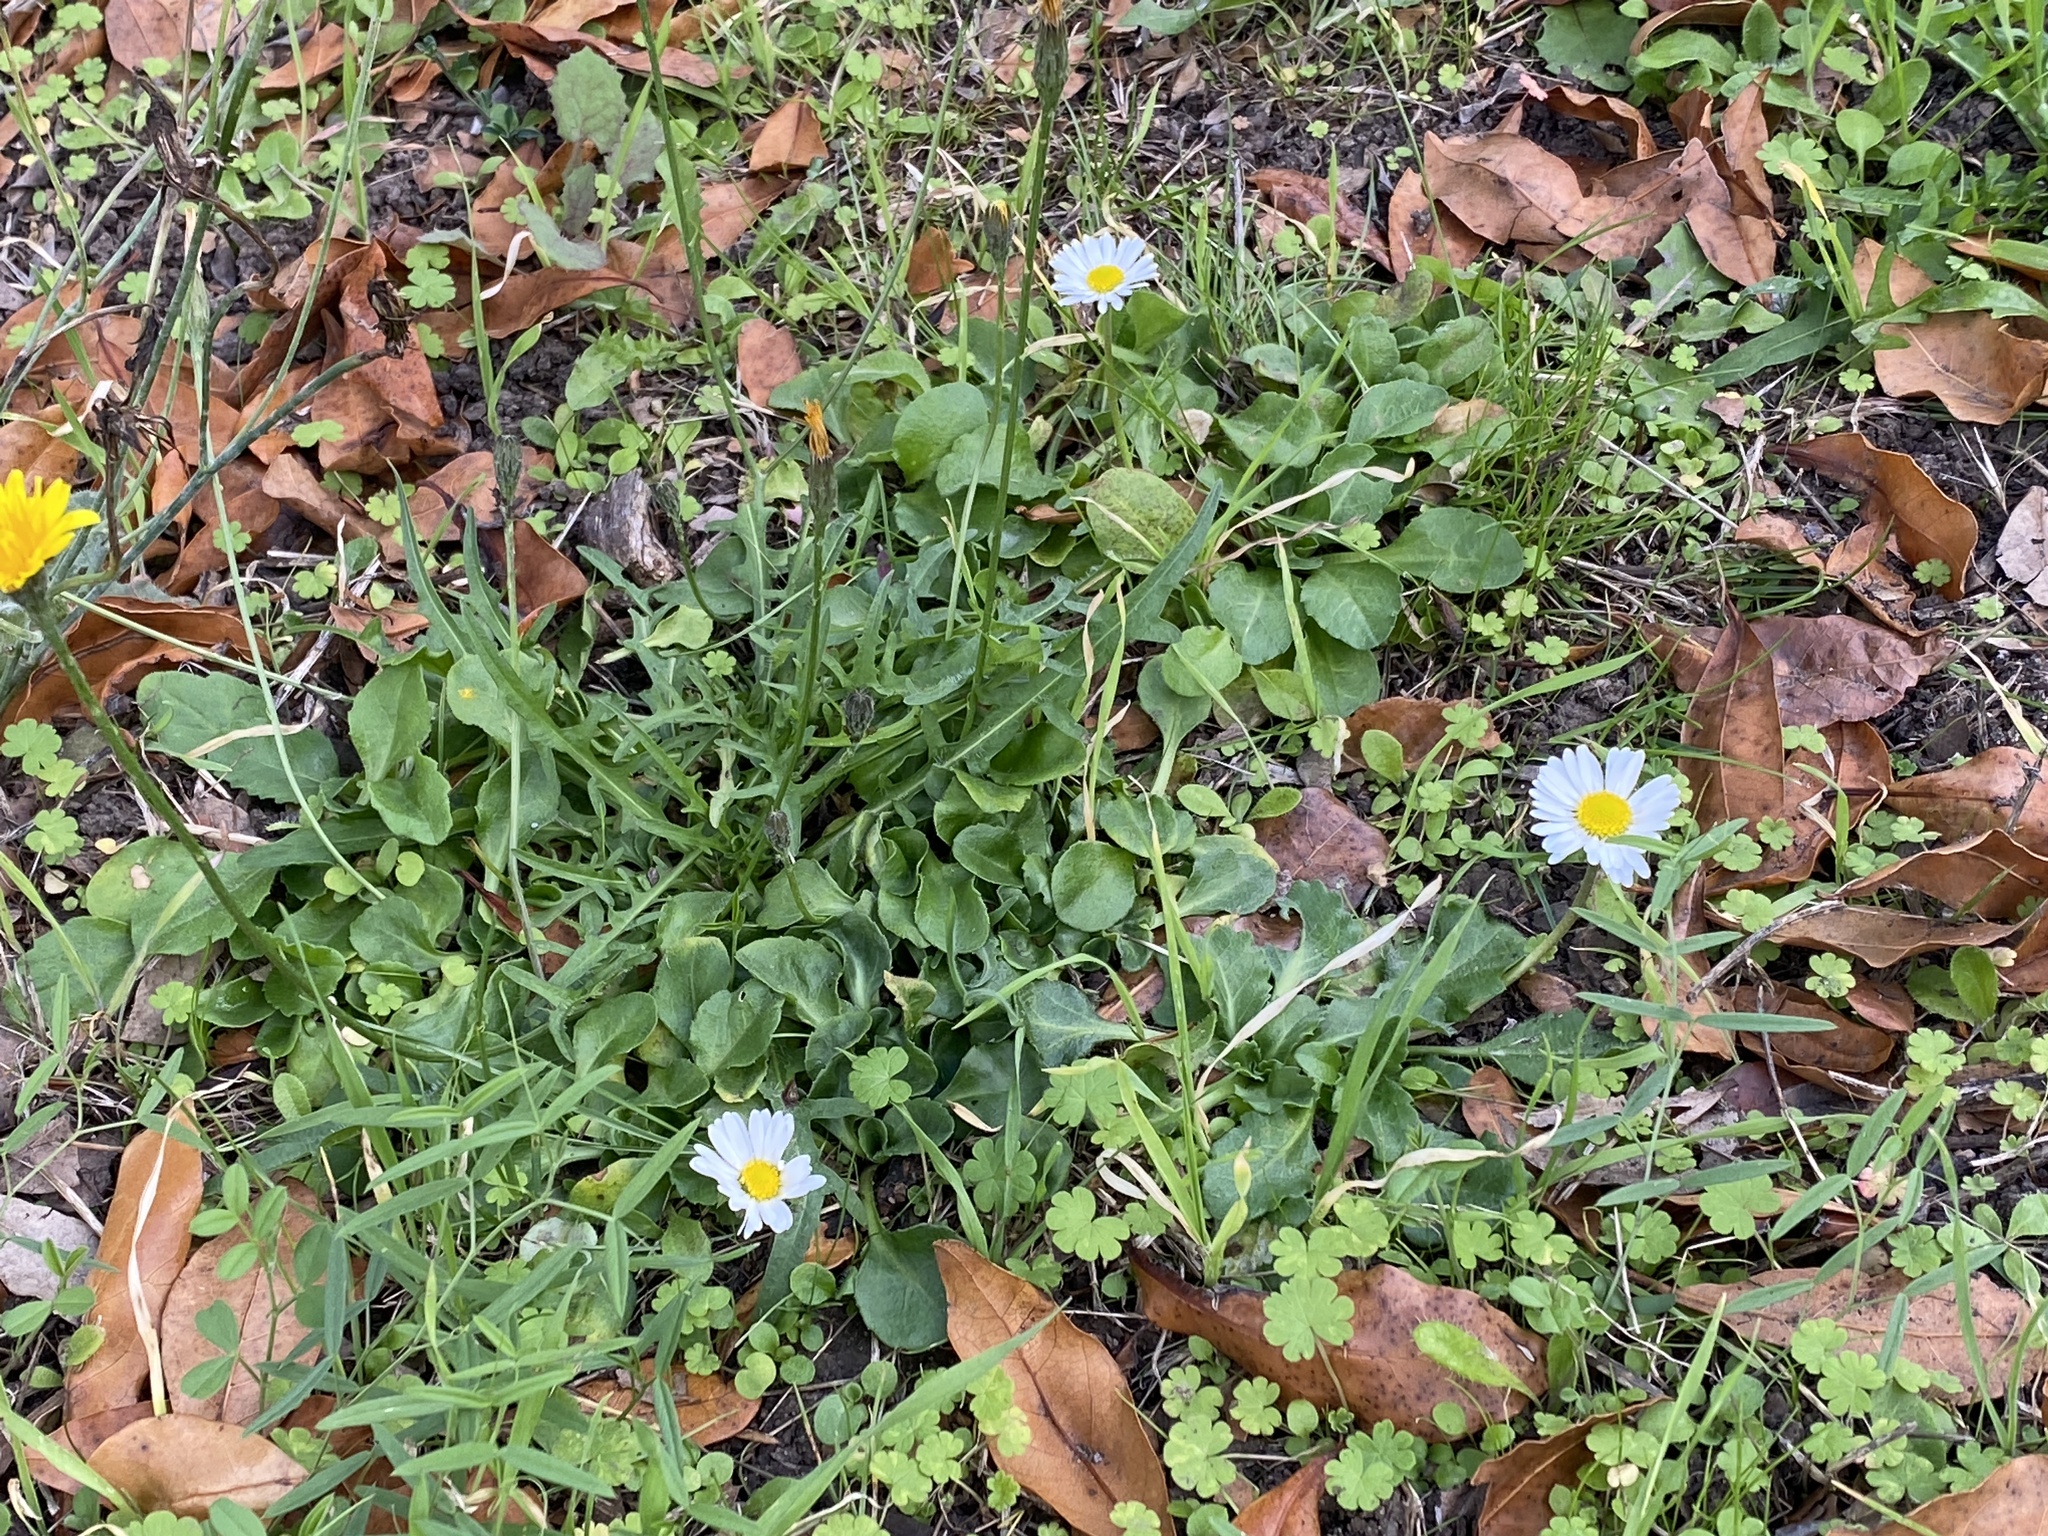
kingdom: Plantae
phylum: Tracheophyta
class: Magnoliopsida
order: Asterales
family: Asteraceae
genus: Bellis
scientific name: Bellis perennis
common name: Lawndaisy
